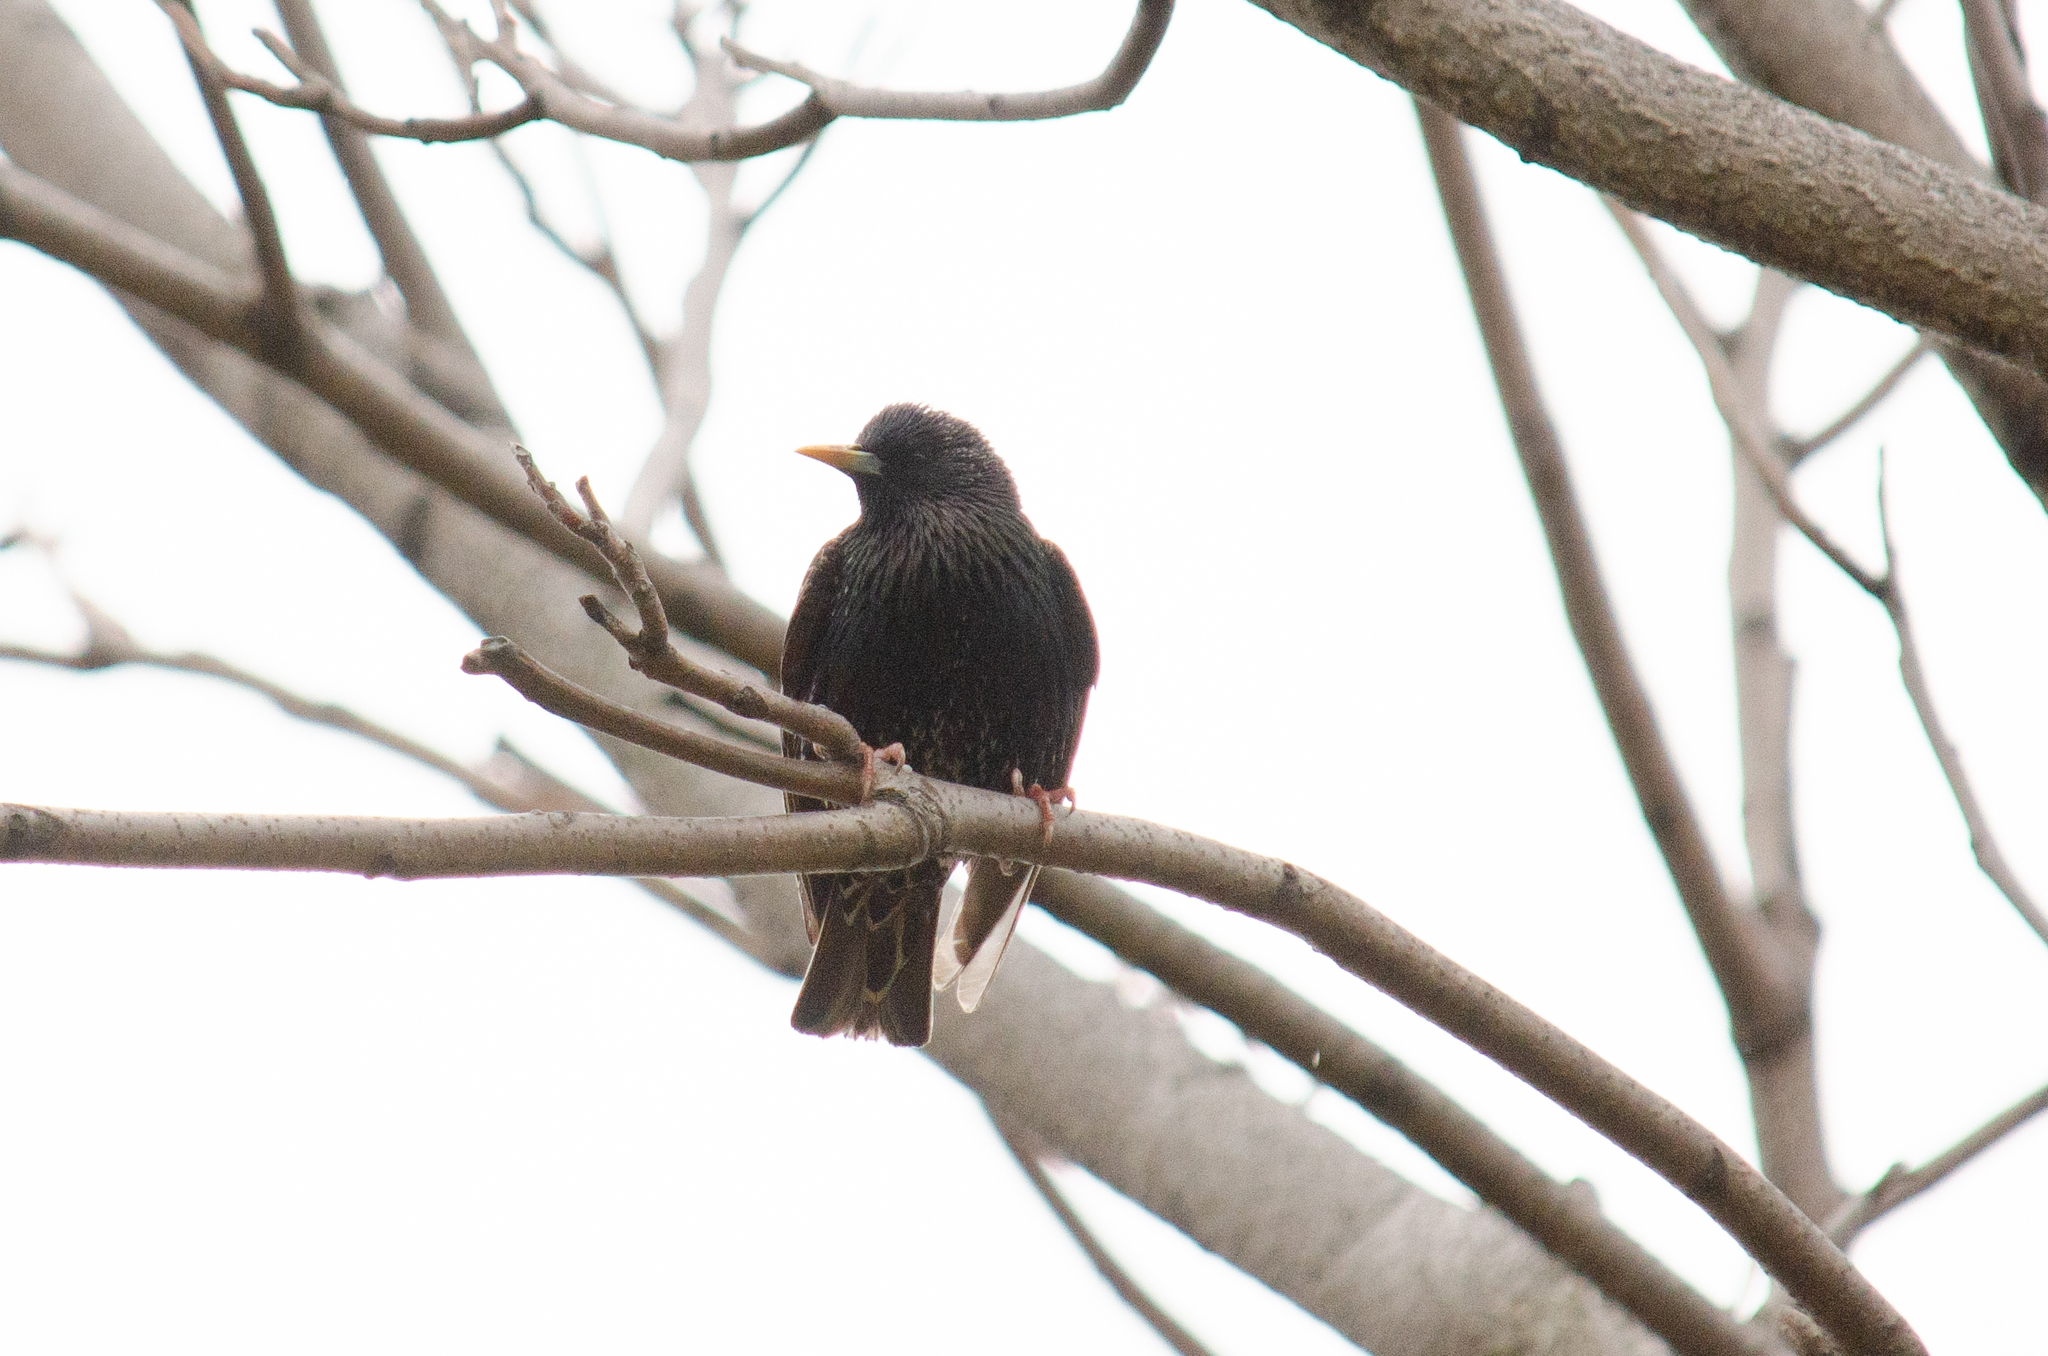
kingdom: Animalia
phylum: Chordata
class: Aves
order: Passeriformes
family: Sturnidae
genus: Sturnus
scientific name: Sturnus vulgaris
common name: Common starling
